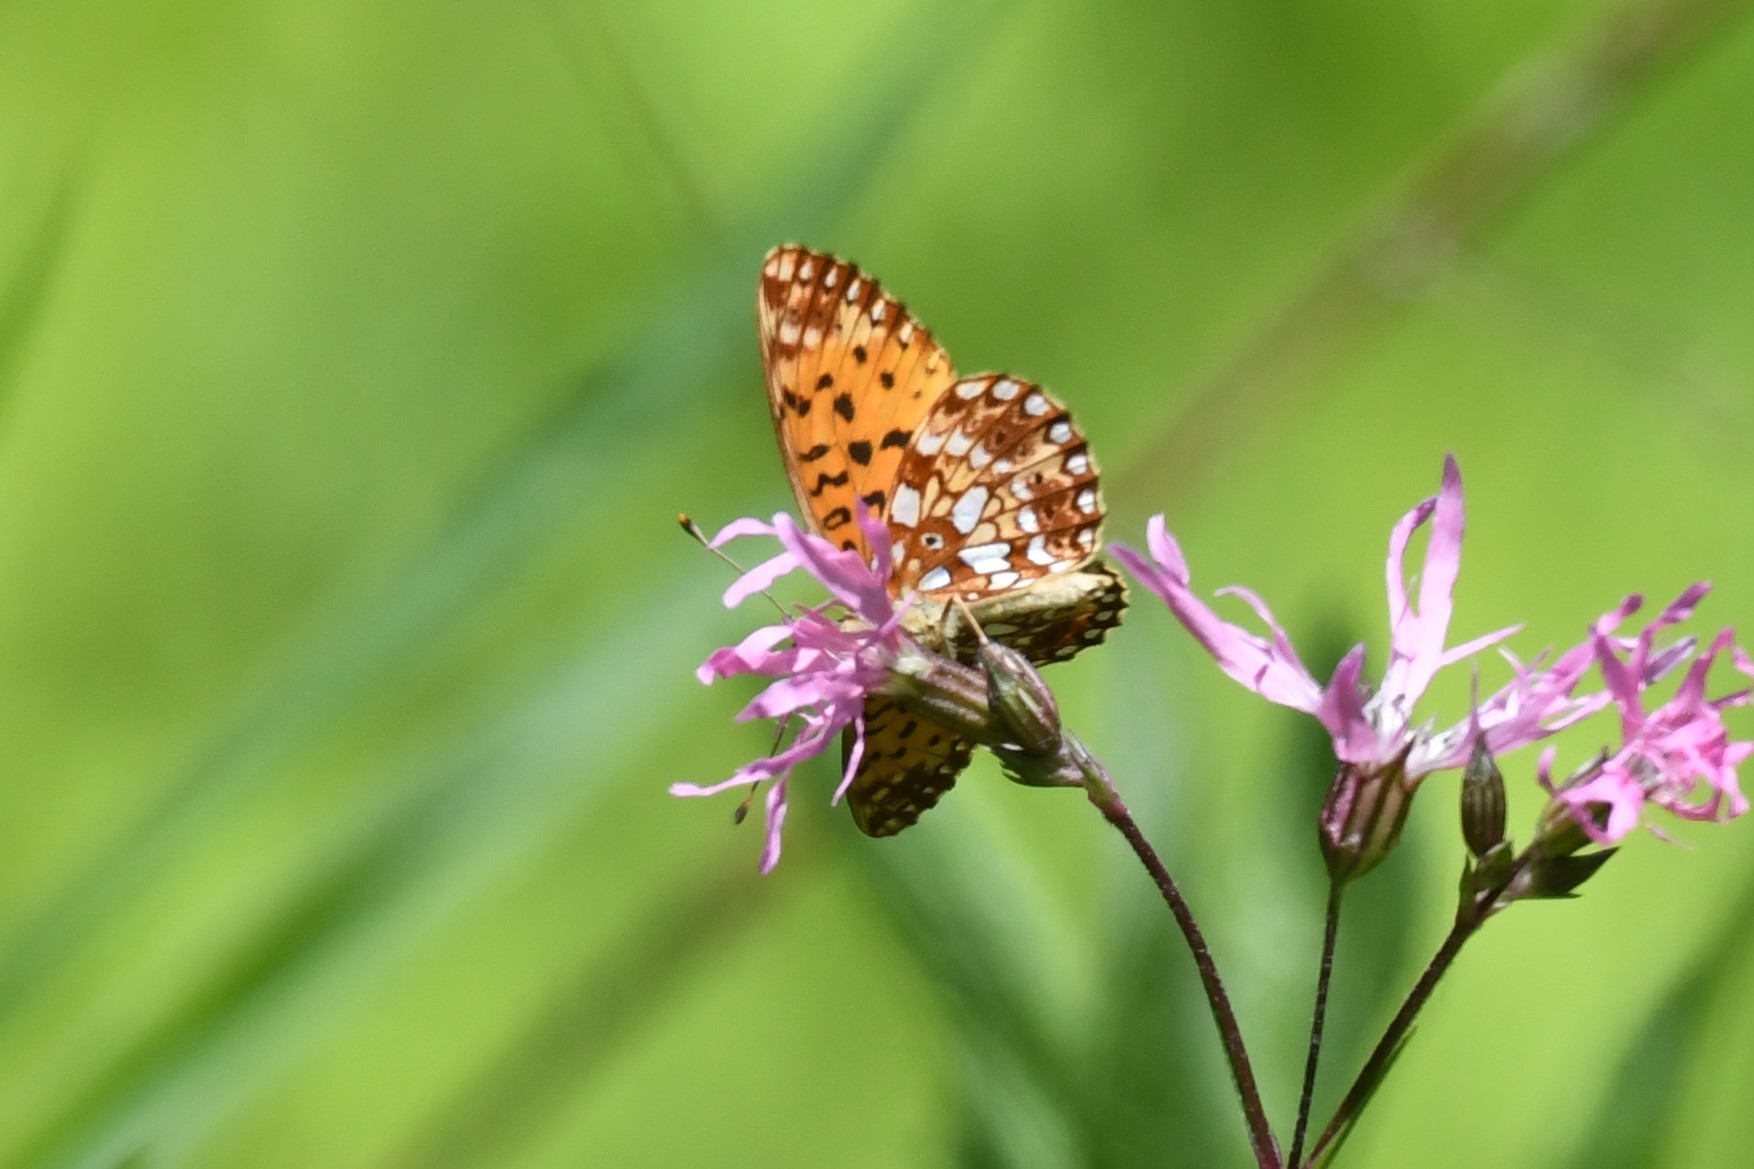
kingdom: Animalia
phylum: Arthropoda
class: Insecta
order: Lepidoptera
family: Nymphalidae
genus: Boloria
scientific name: Boloria
